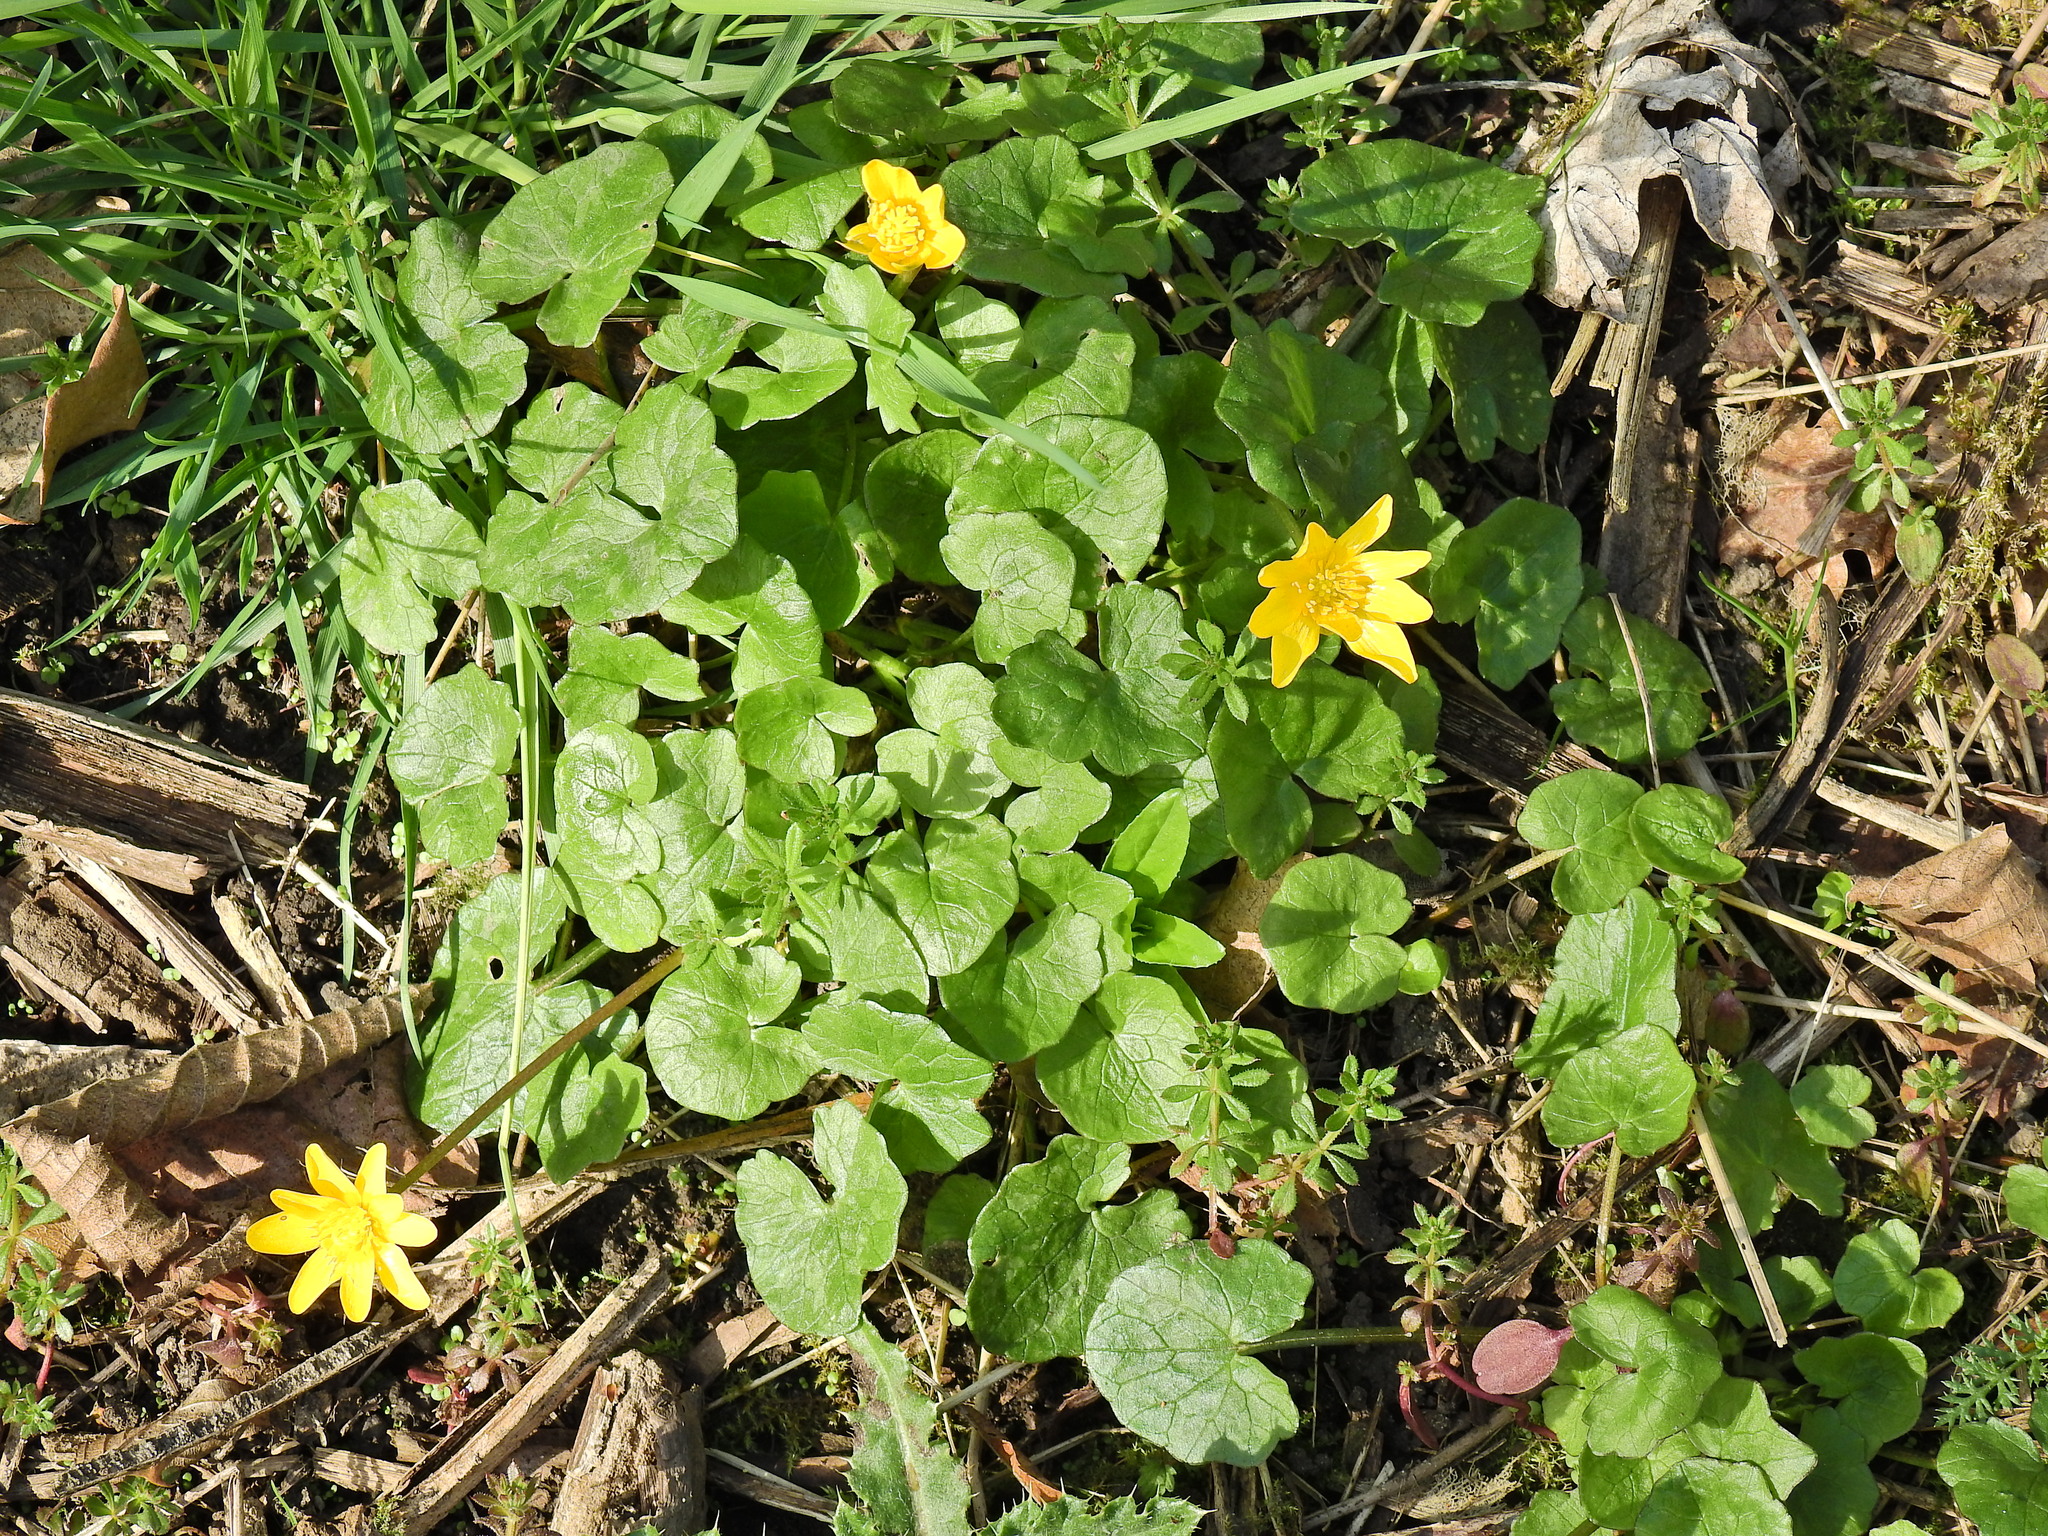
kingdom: Plantae
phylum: Tracheophyta
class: Magnoliopsida
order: Ranunculales
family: Ranunculaceae
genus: Ficaria
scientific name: Ficaria verna
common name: Lesser celandine
